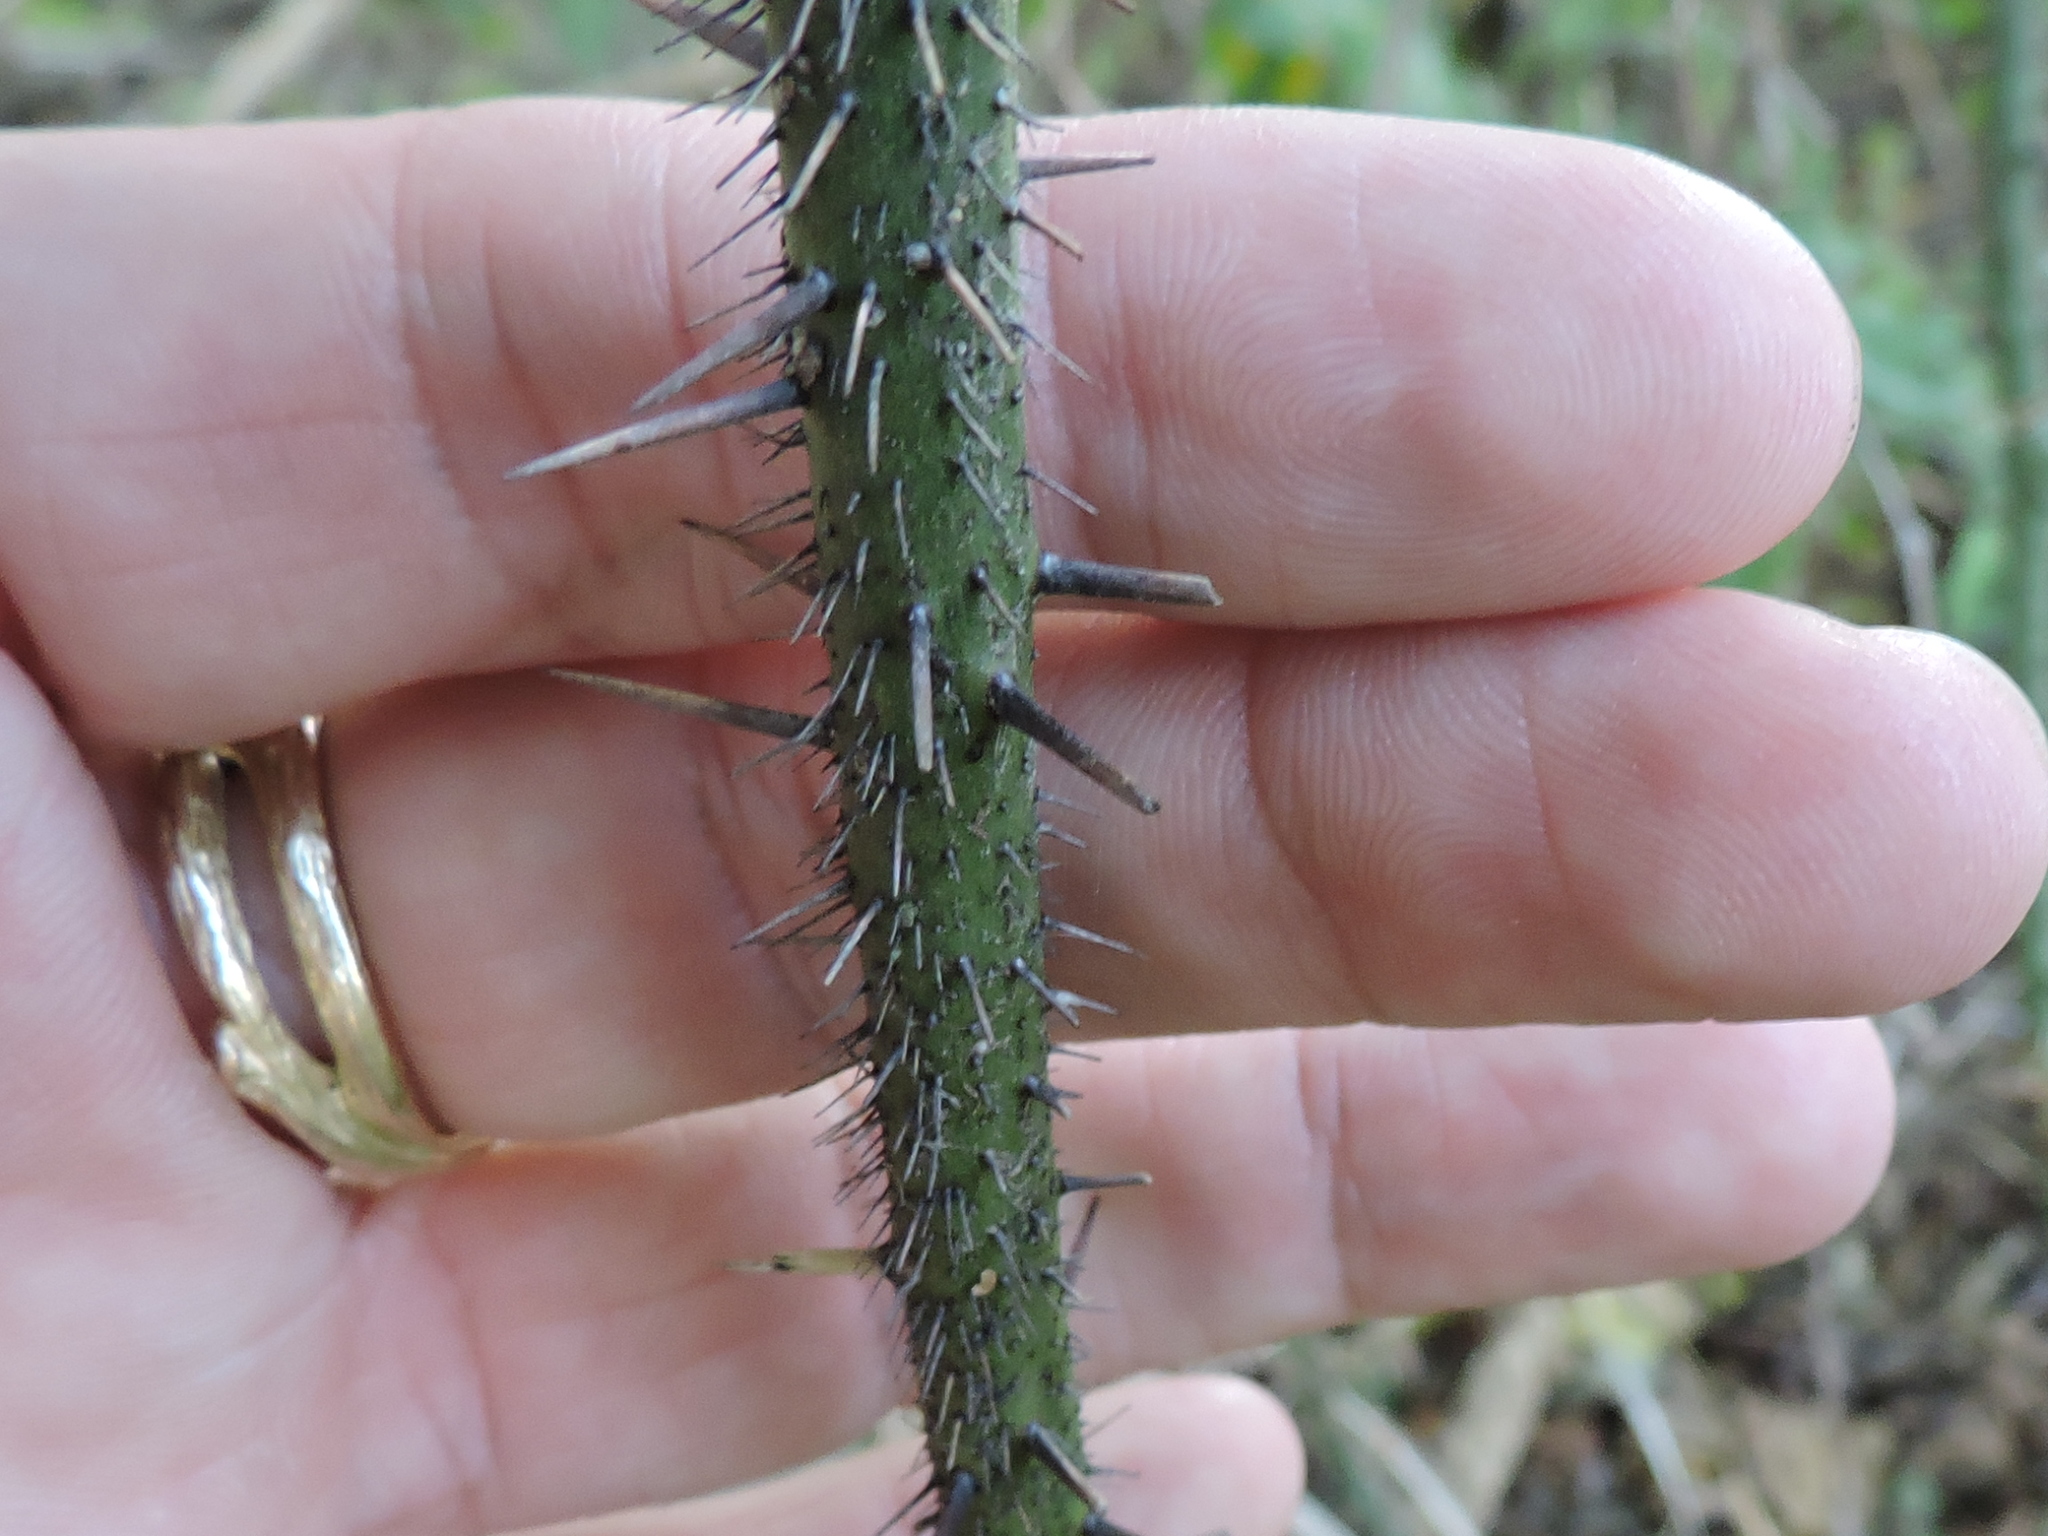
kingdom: Plantae
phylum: Tracheophyta
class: Liliopsida
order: Liliales
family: Smilacaceae
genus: Smilax
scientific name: Smilax tamnoides
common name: Hellfetter
